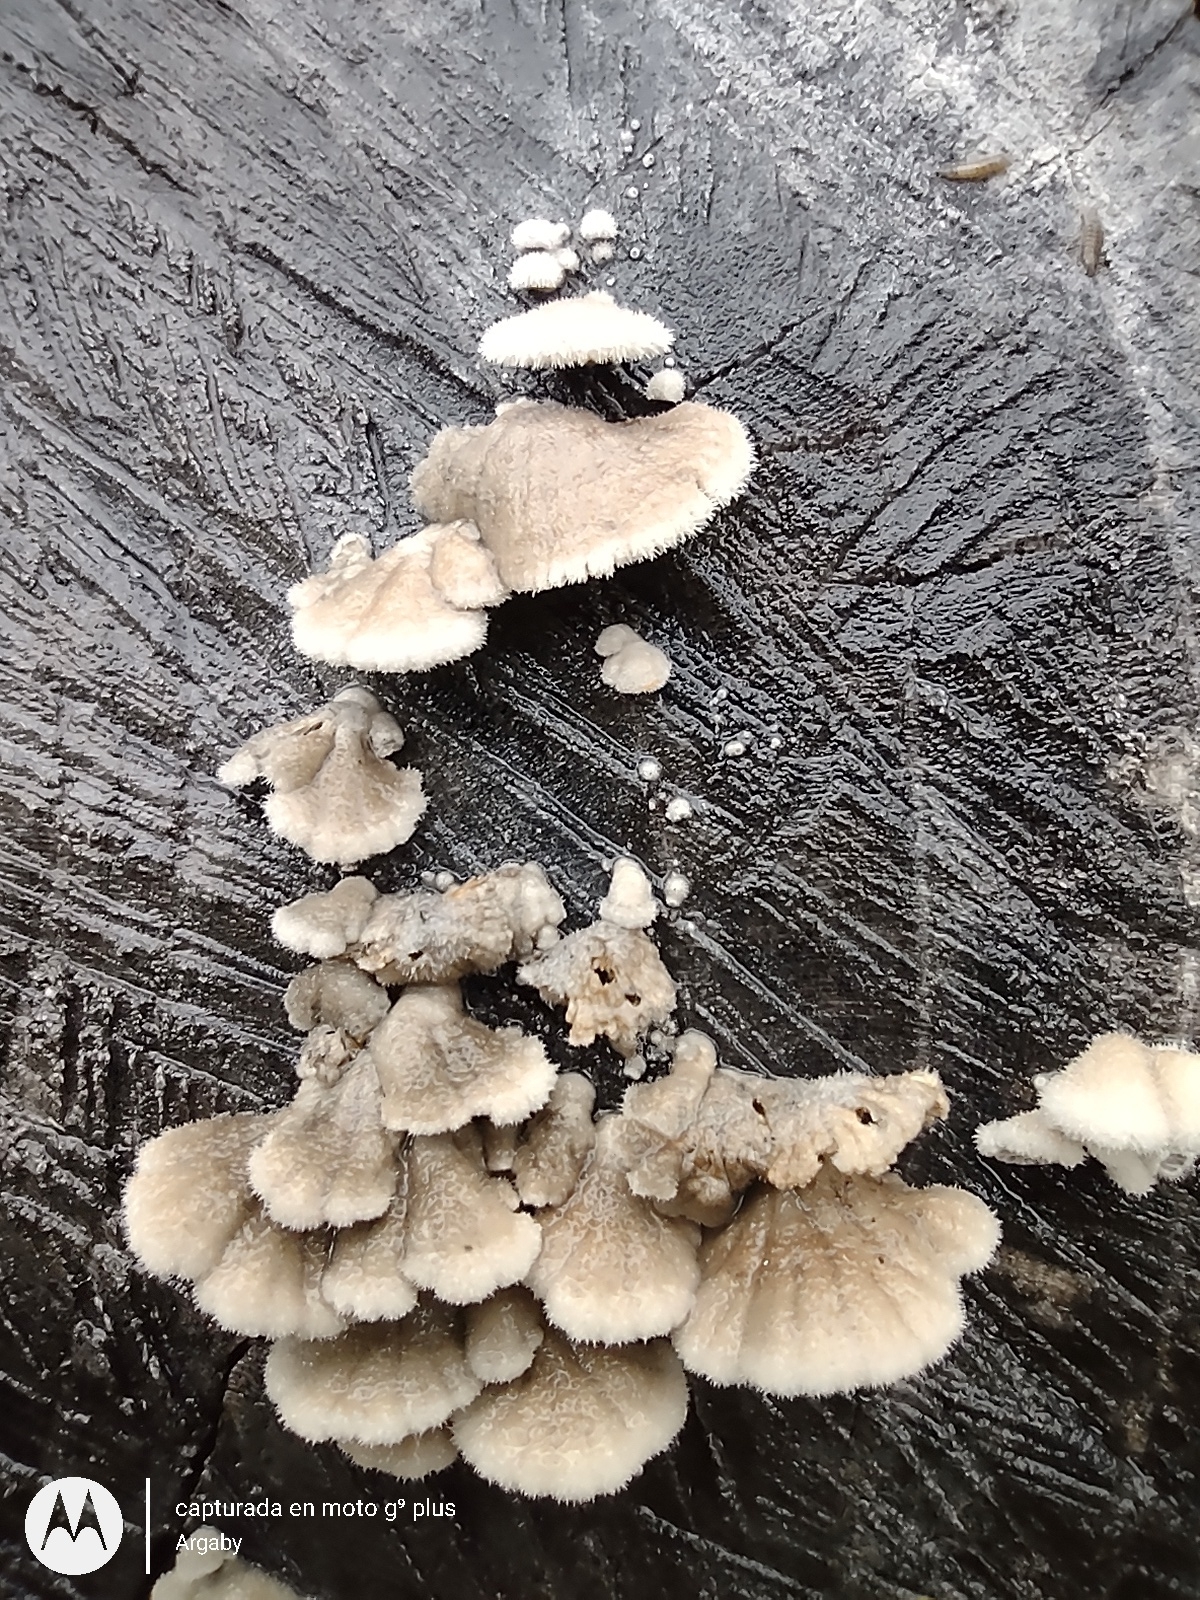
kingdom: Fungi
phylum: Basidiomycota
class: Agaricomycetes
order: Agaricales
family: Schizophyllaceae
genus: Schizophyllum
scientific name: Schizophyllum commune
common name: Common porecrust
